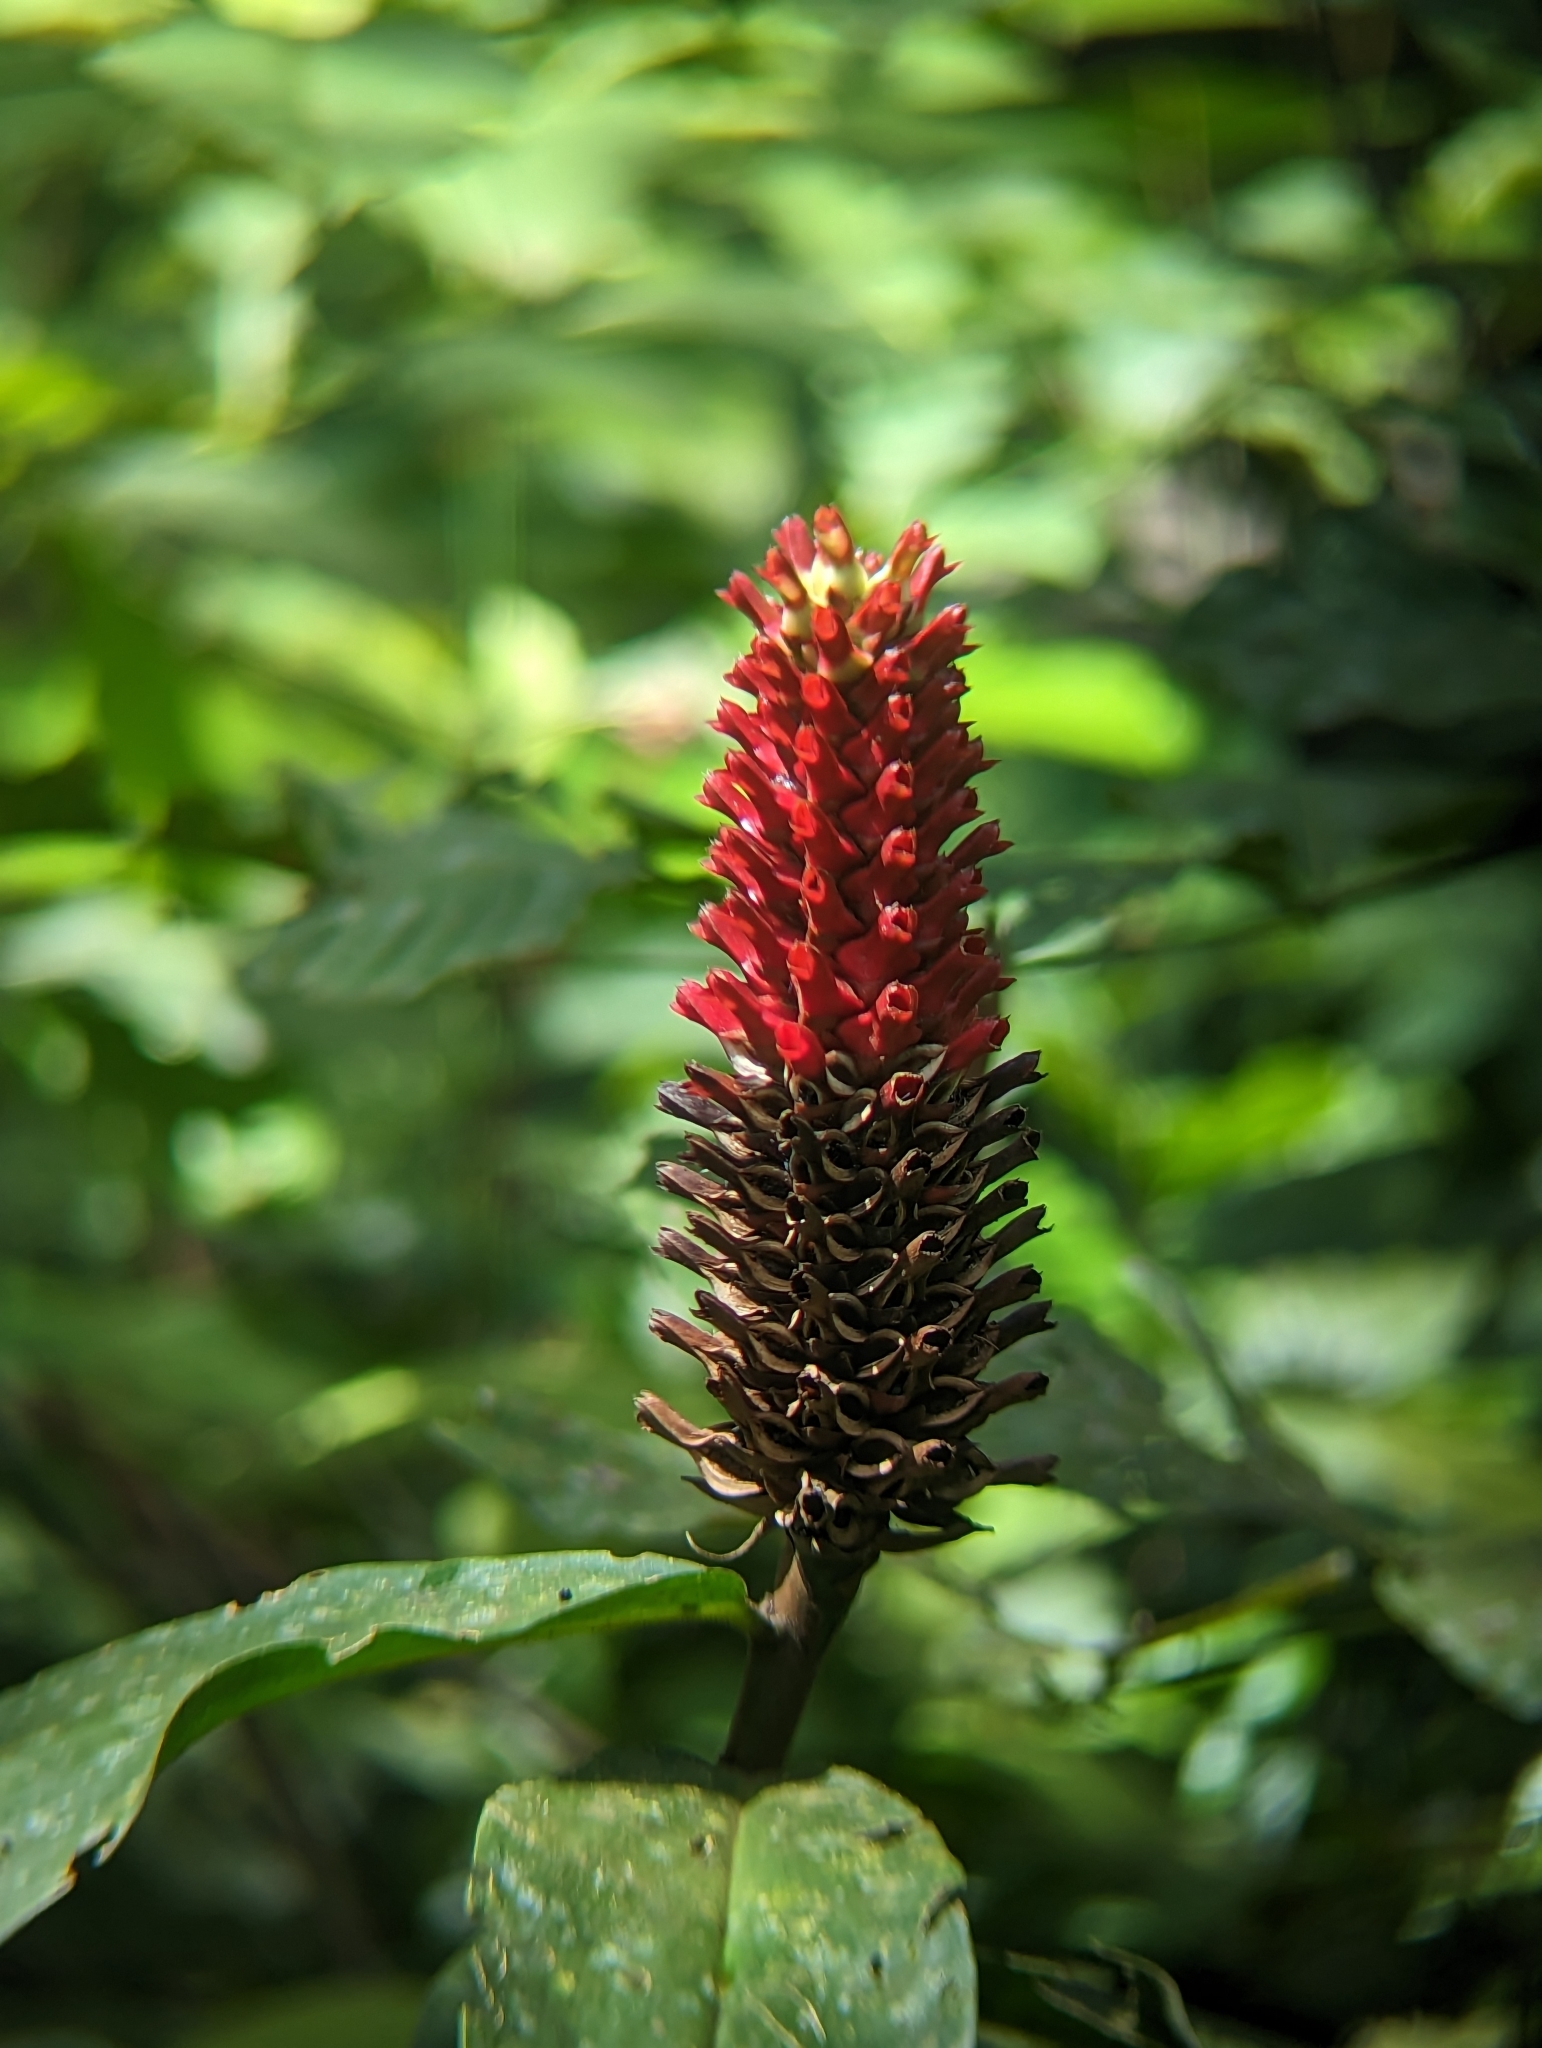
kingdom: Plantae
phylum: Tracheophyta
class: Liliopsida
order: Zingiberales
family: Costaceae
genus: Hellenia
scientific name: Hellenia speciosa
